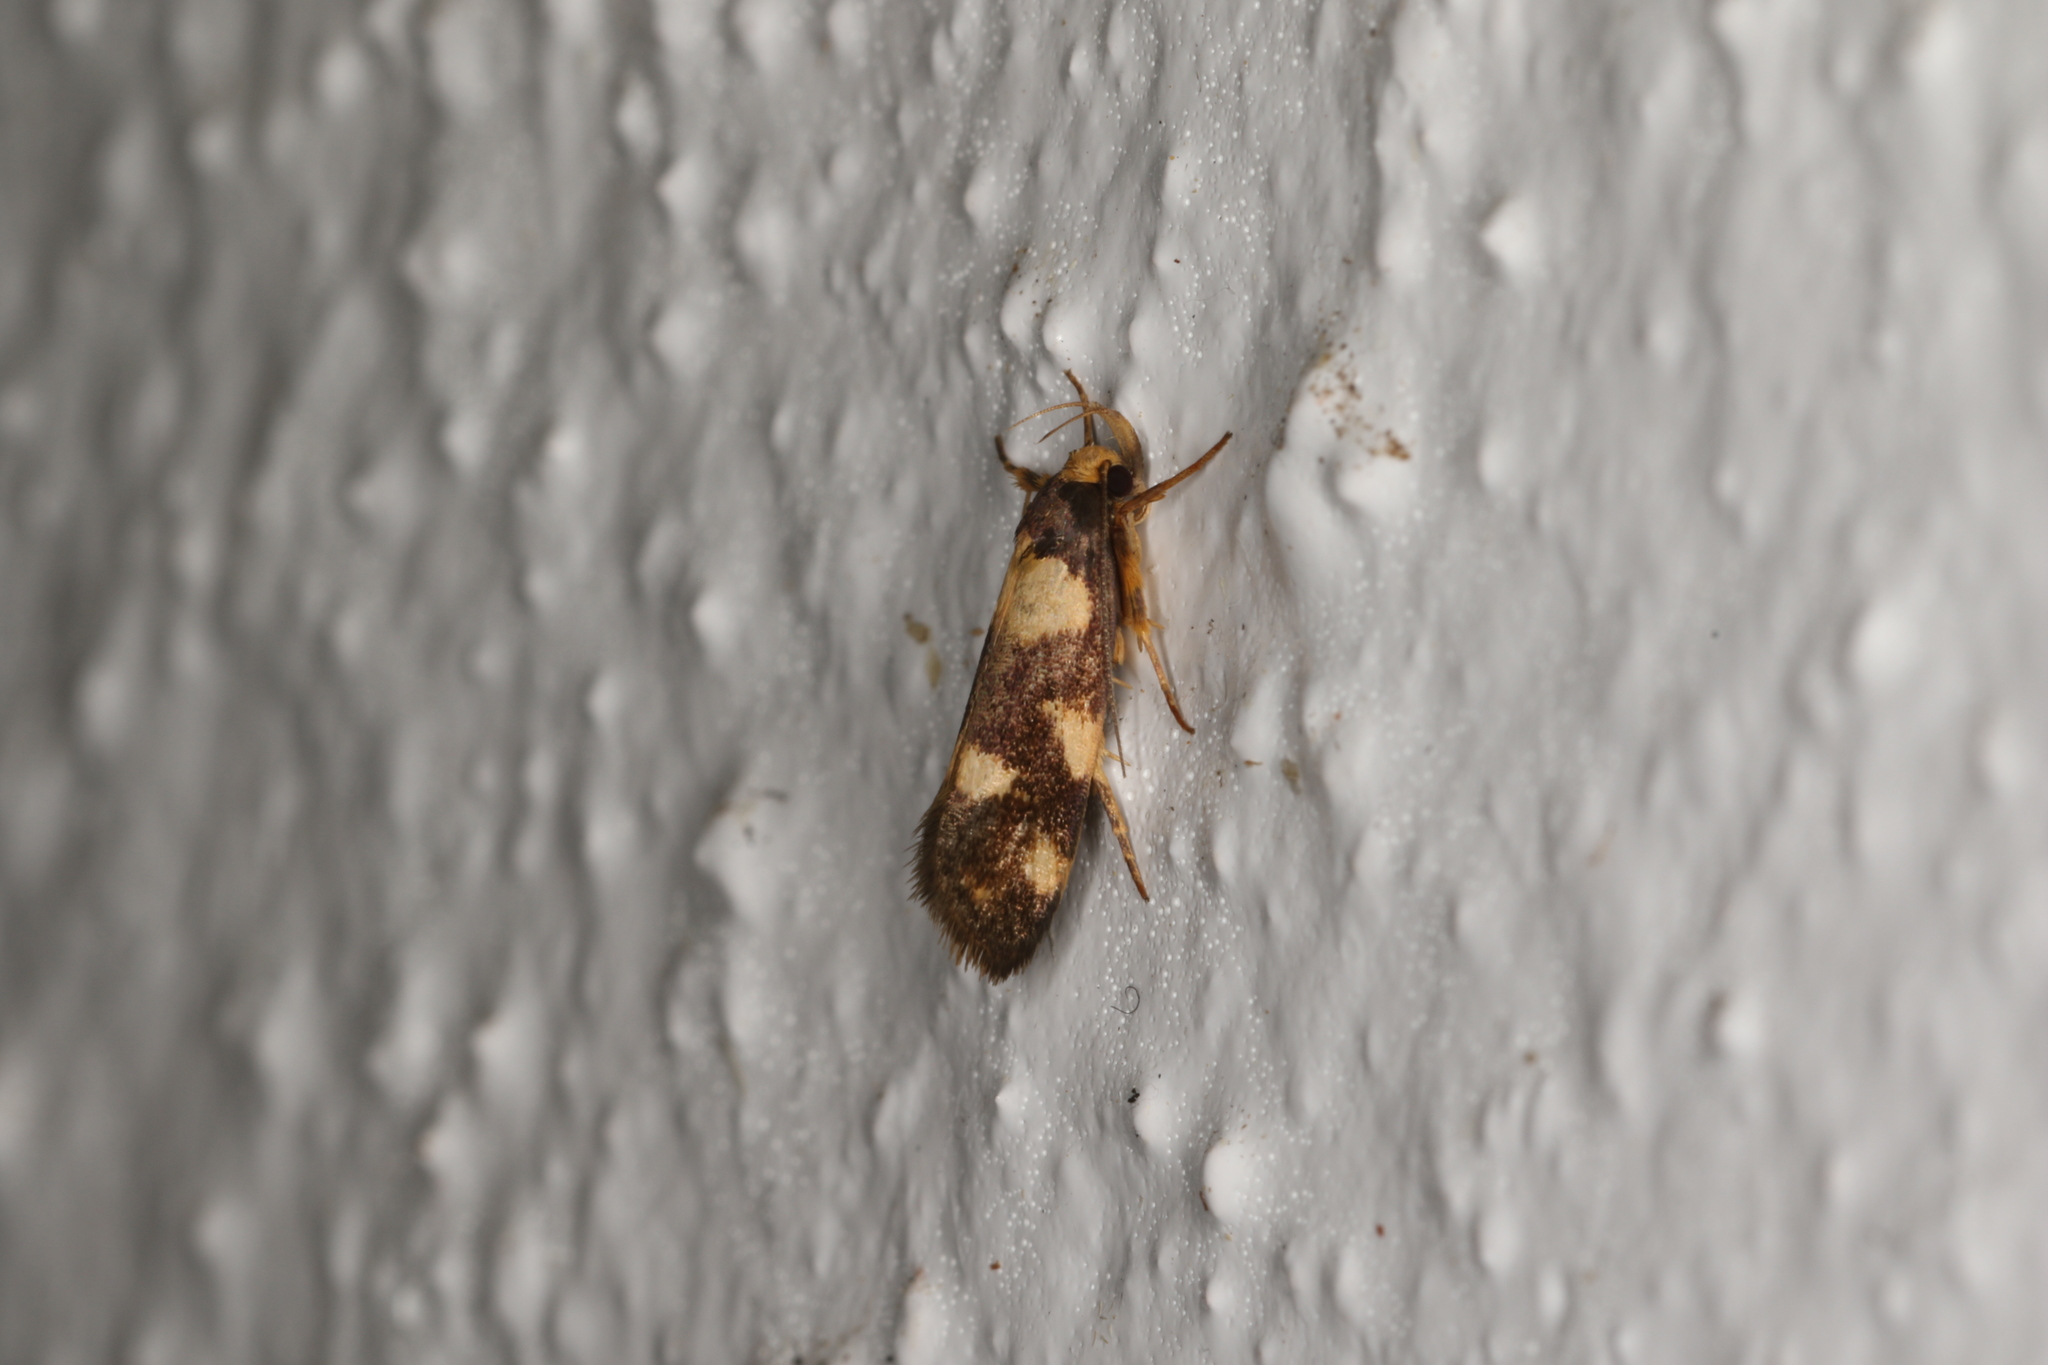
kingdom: Animalia
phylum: Arthropoda
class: Insecta
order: Lepidoptera
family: Oecophoridae
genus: Eulechria
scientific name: Eulechria isozona
